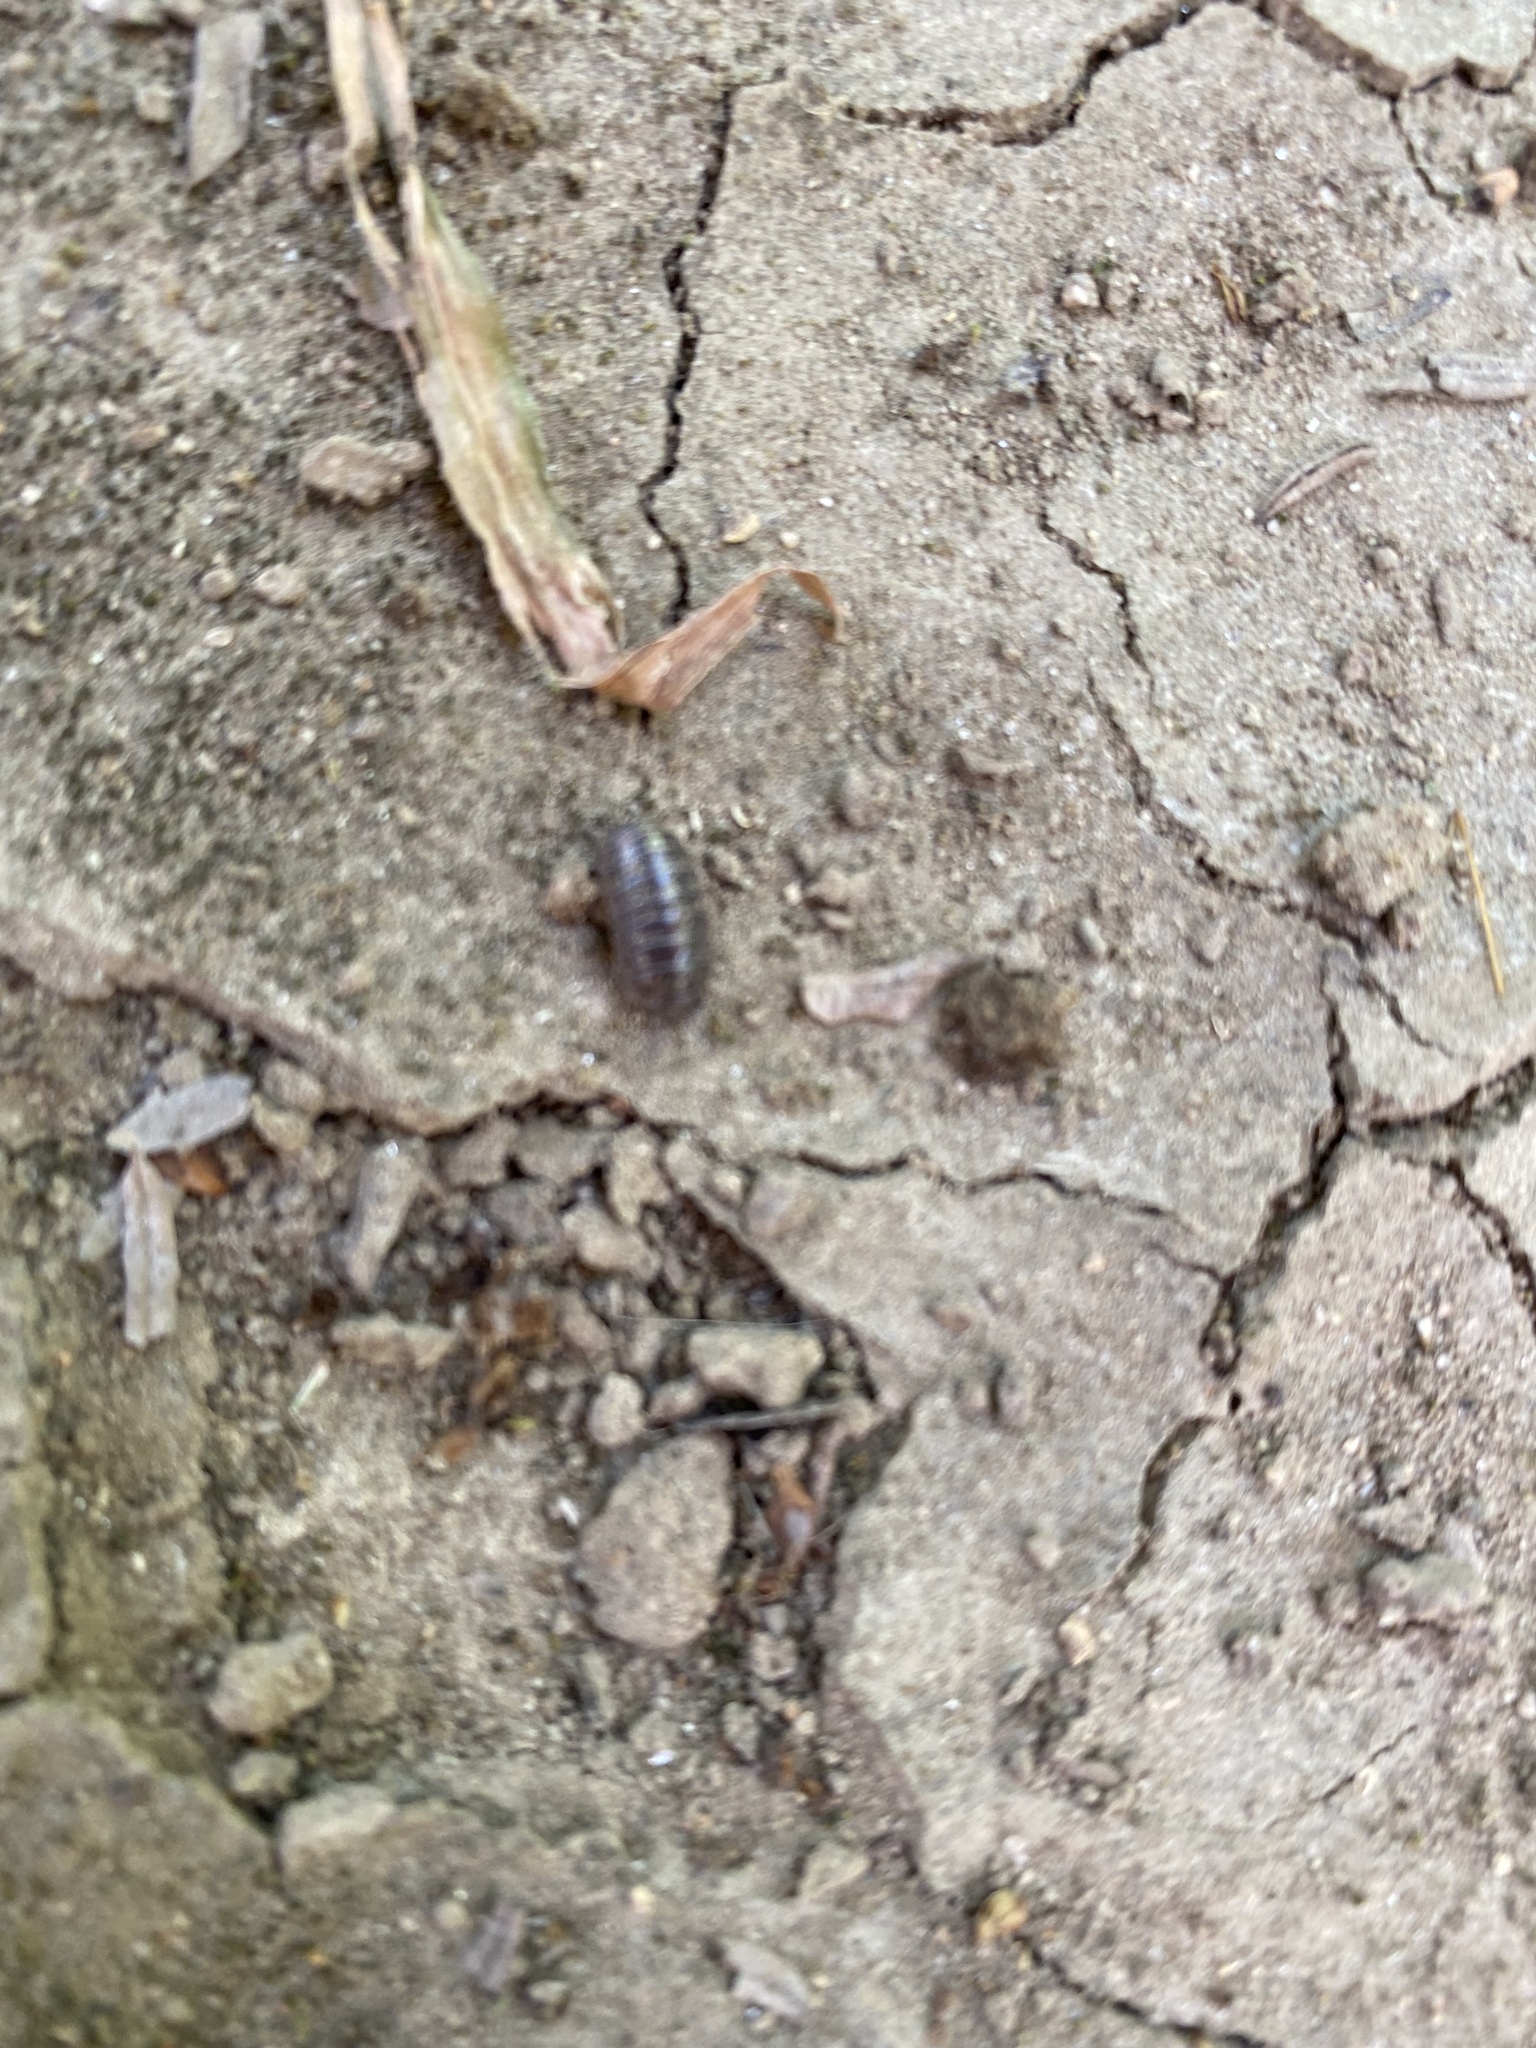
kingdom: Animalia
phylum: Arthropoda
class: Malacostraca
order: Isopoda
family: Armadillidiidae
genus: Armadillidium
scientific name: Armadillidium vulgare
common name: Common pill woodlouse
